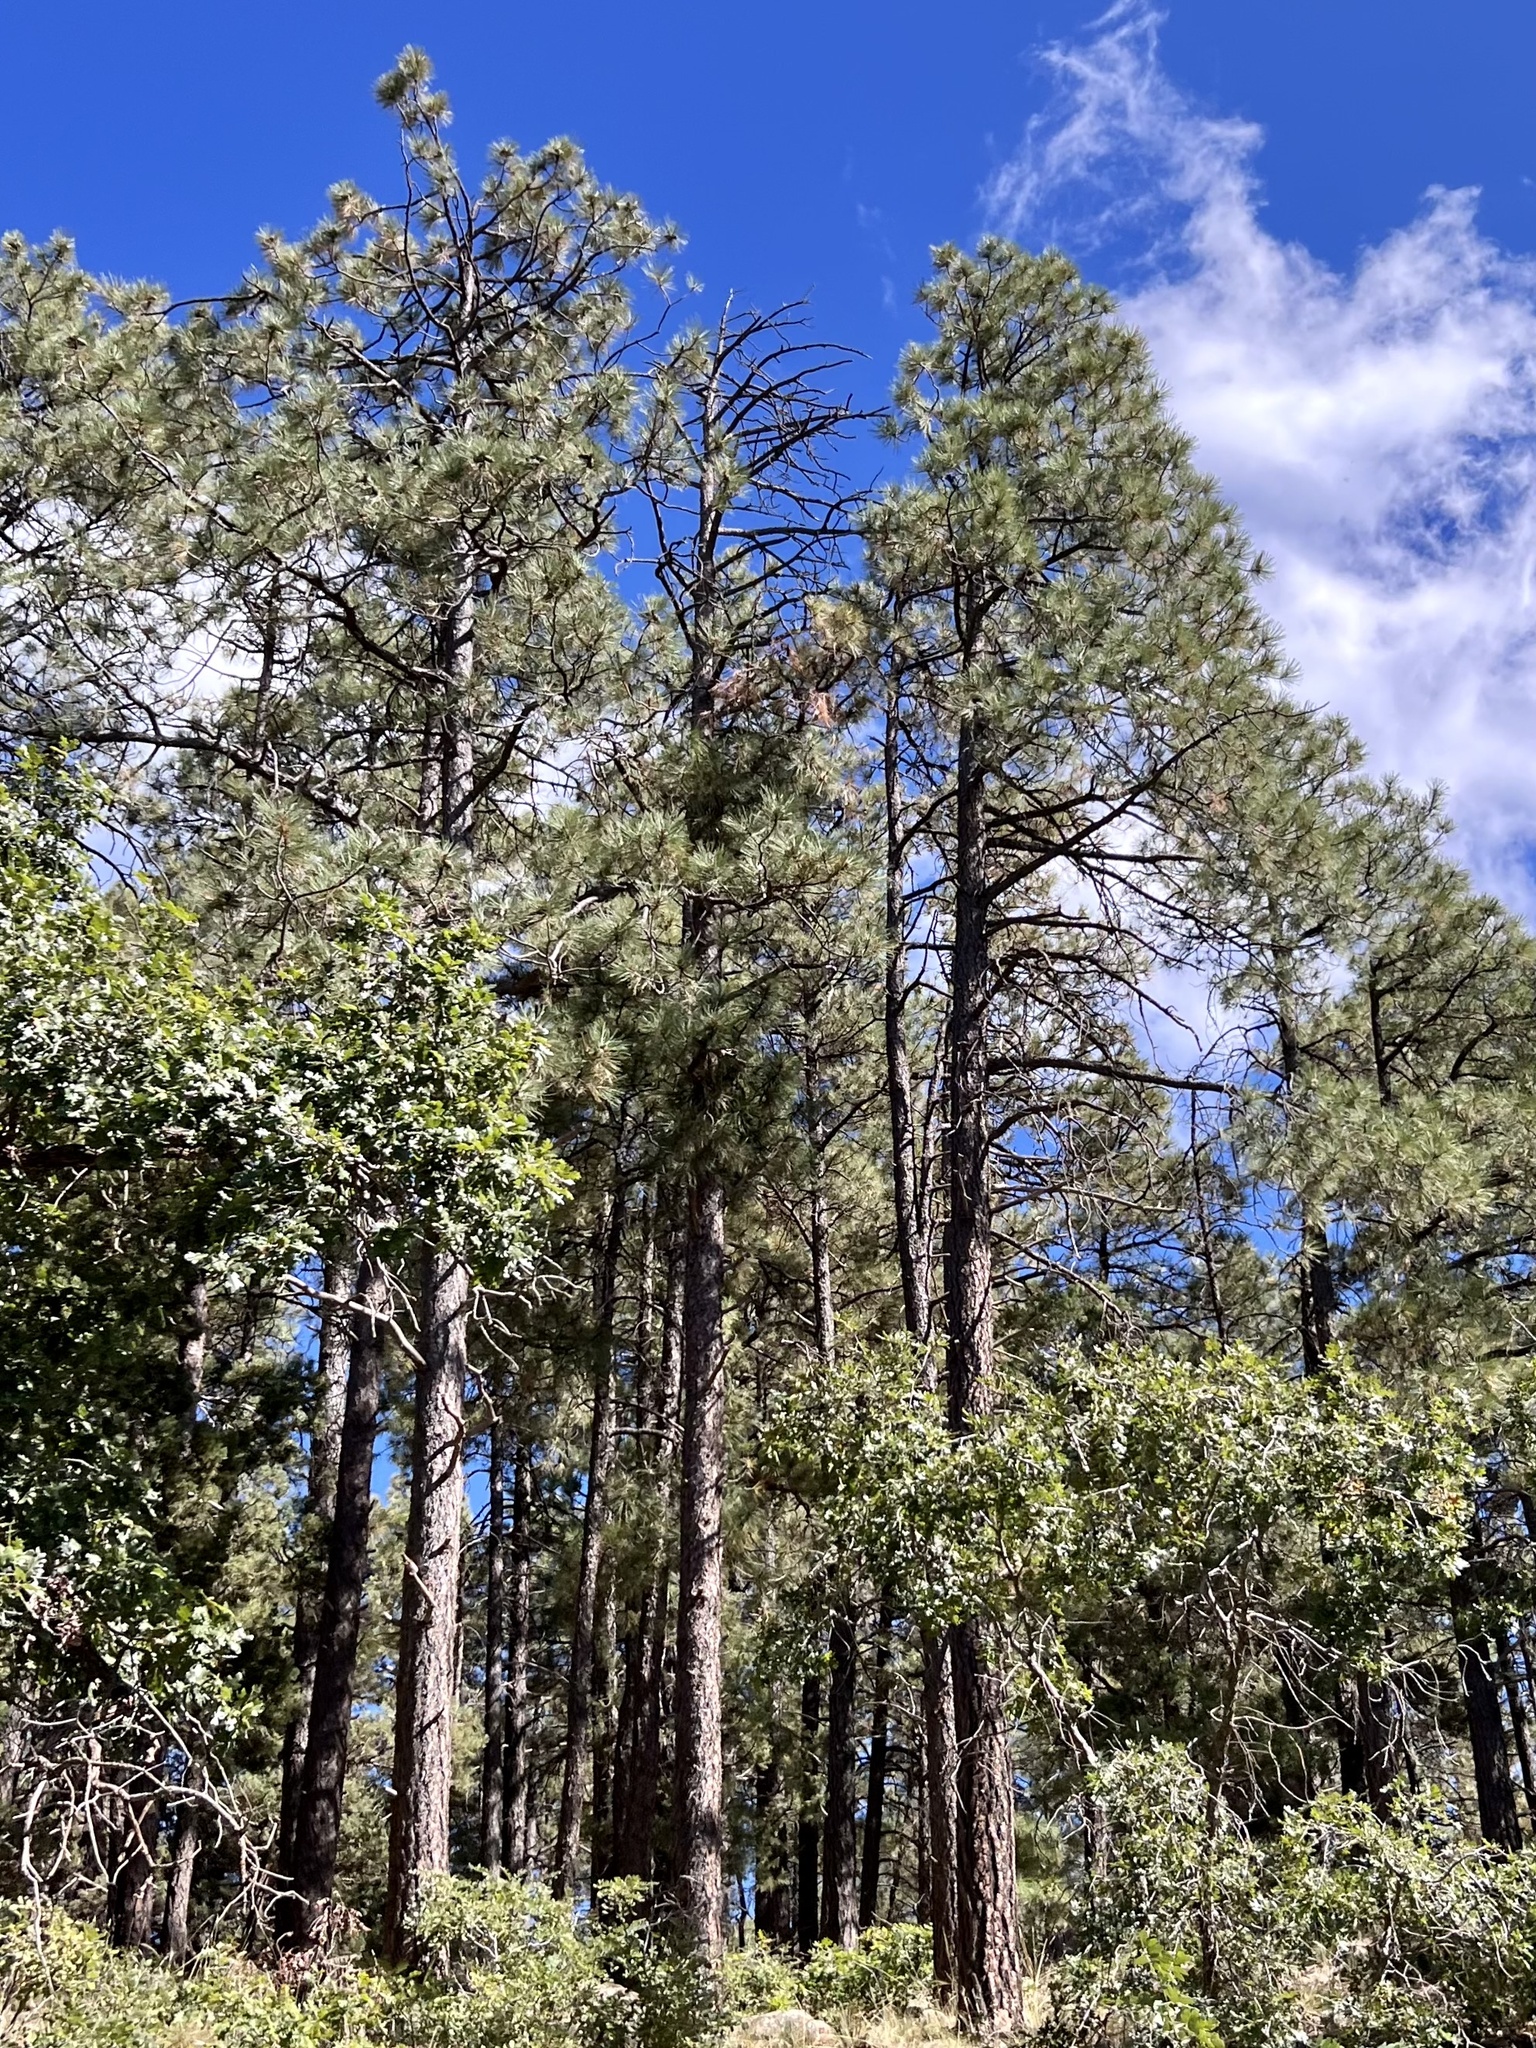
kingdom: Plantae
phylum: Tracheophyta
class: Pinopsida
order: Pinales
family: Pinaceae
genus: Pinus
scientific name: Pinus ponderosa
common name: Western yellow-pine
